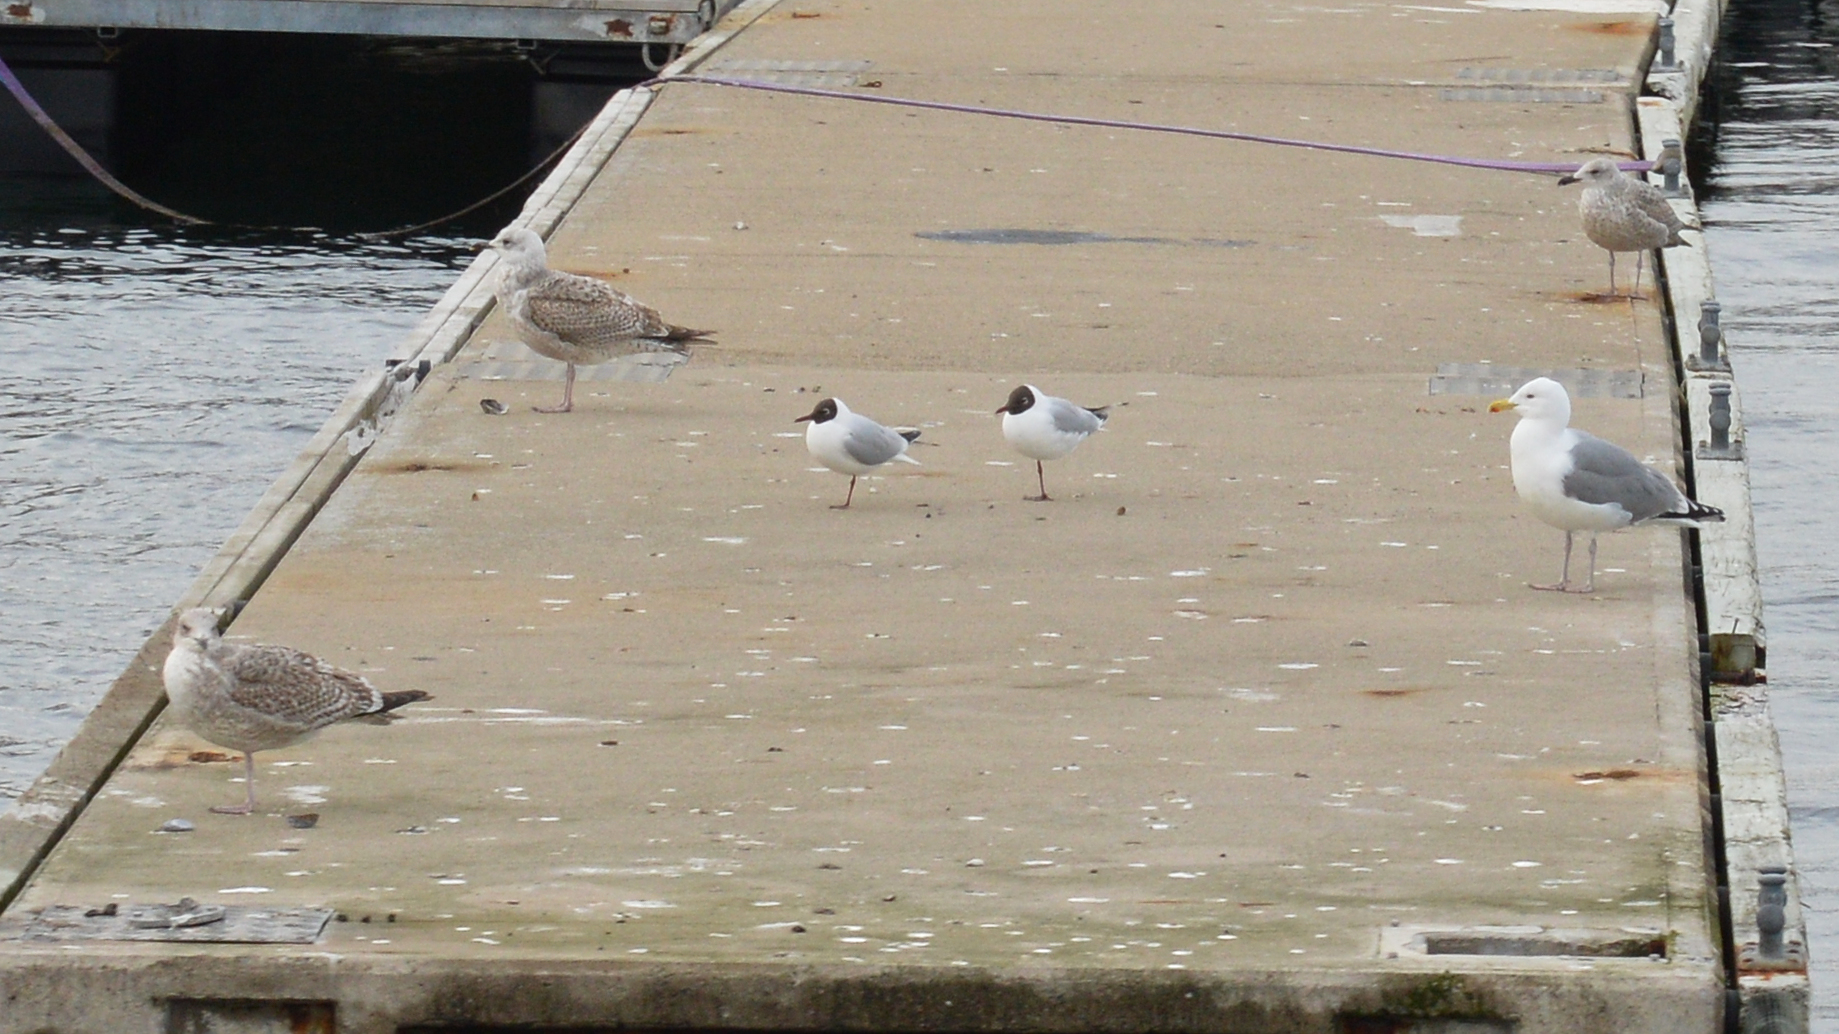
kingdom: Animalia
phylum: Chordata
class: Aves
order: Charadriiformes
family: Laridae
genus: Larus
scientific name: Larus argentatus
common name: Herring gull
